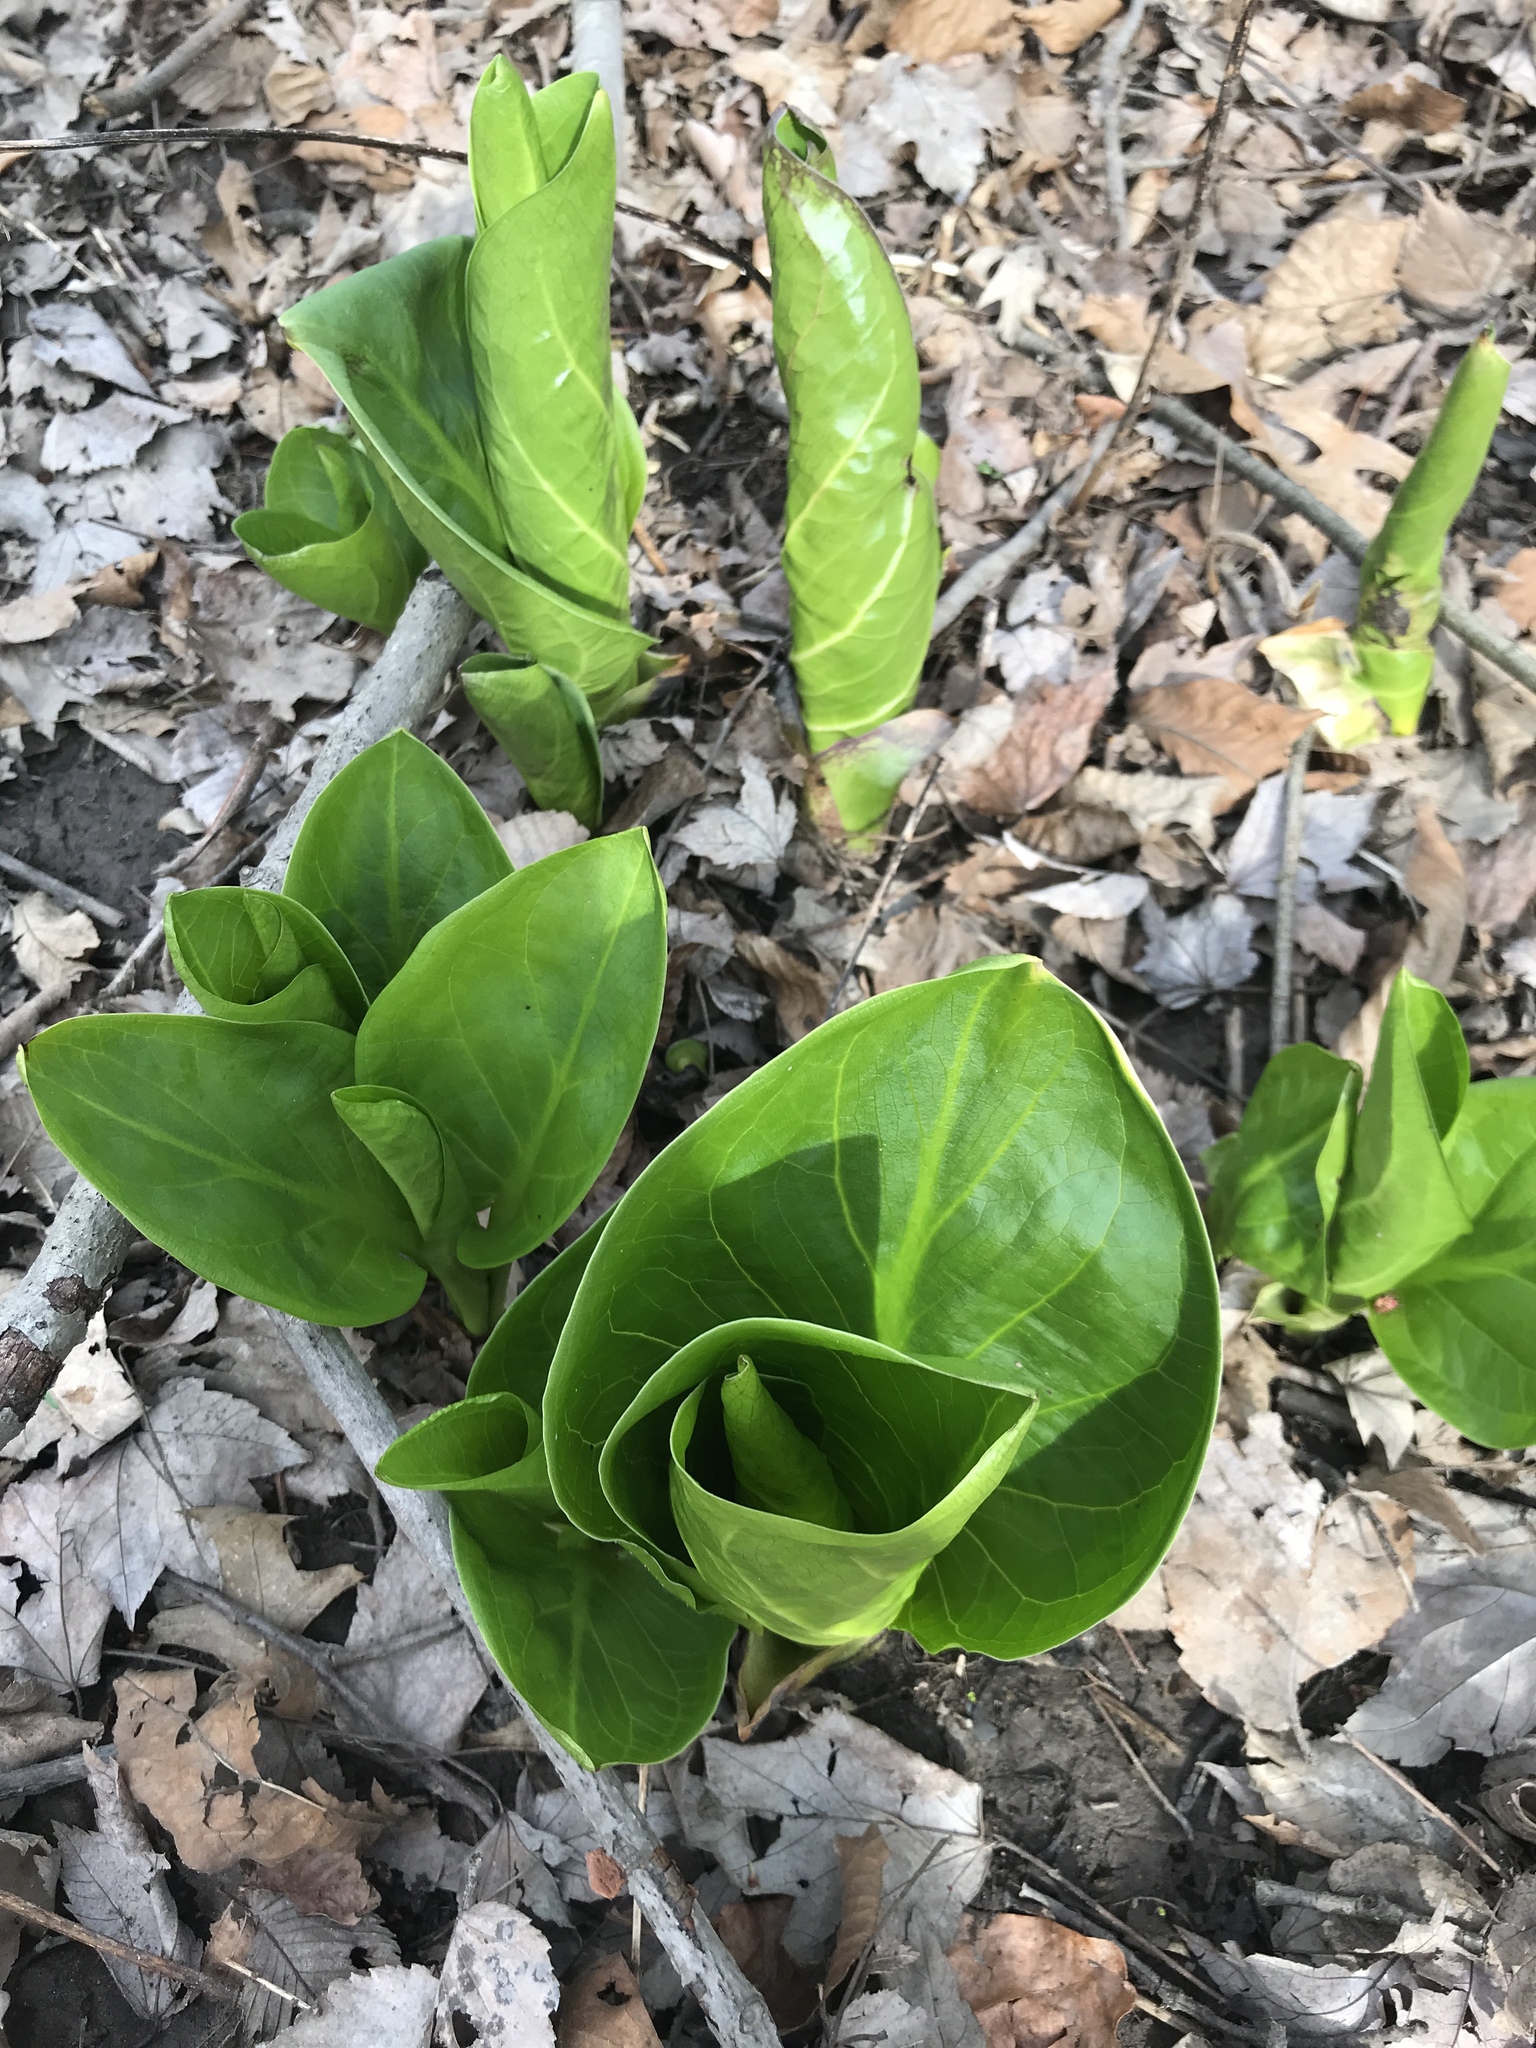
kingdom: Plantae
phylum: Tracheophyta
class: Liliopsida
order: Alismatales
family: Araceae
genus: Symplocarpus
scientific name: Symplocarpus foetidus
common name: Eastern skunk cabbage
